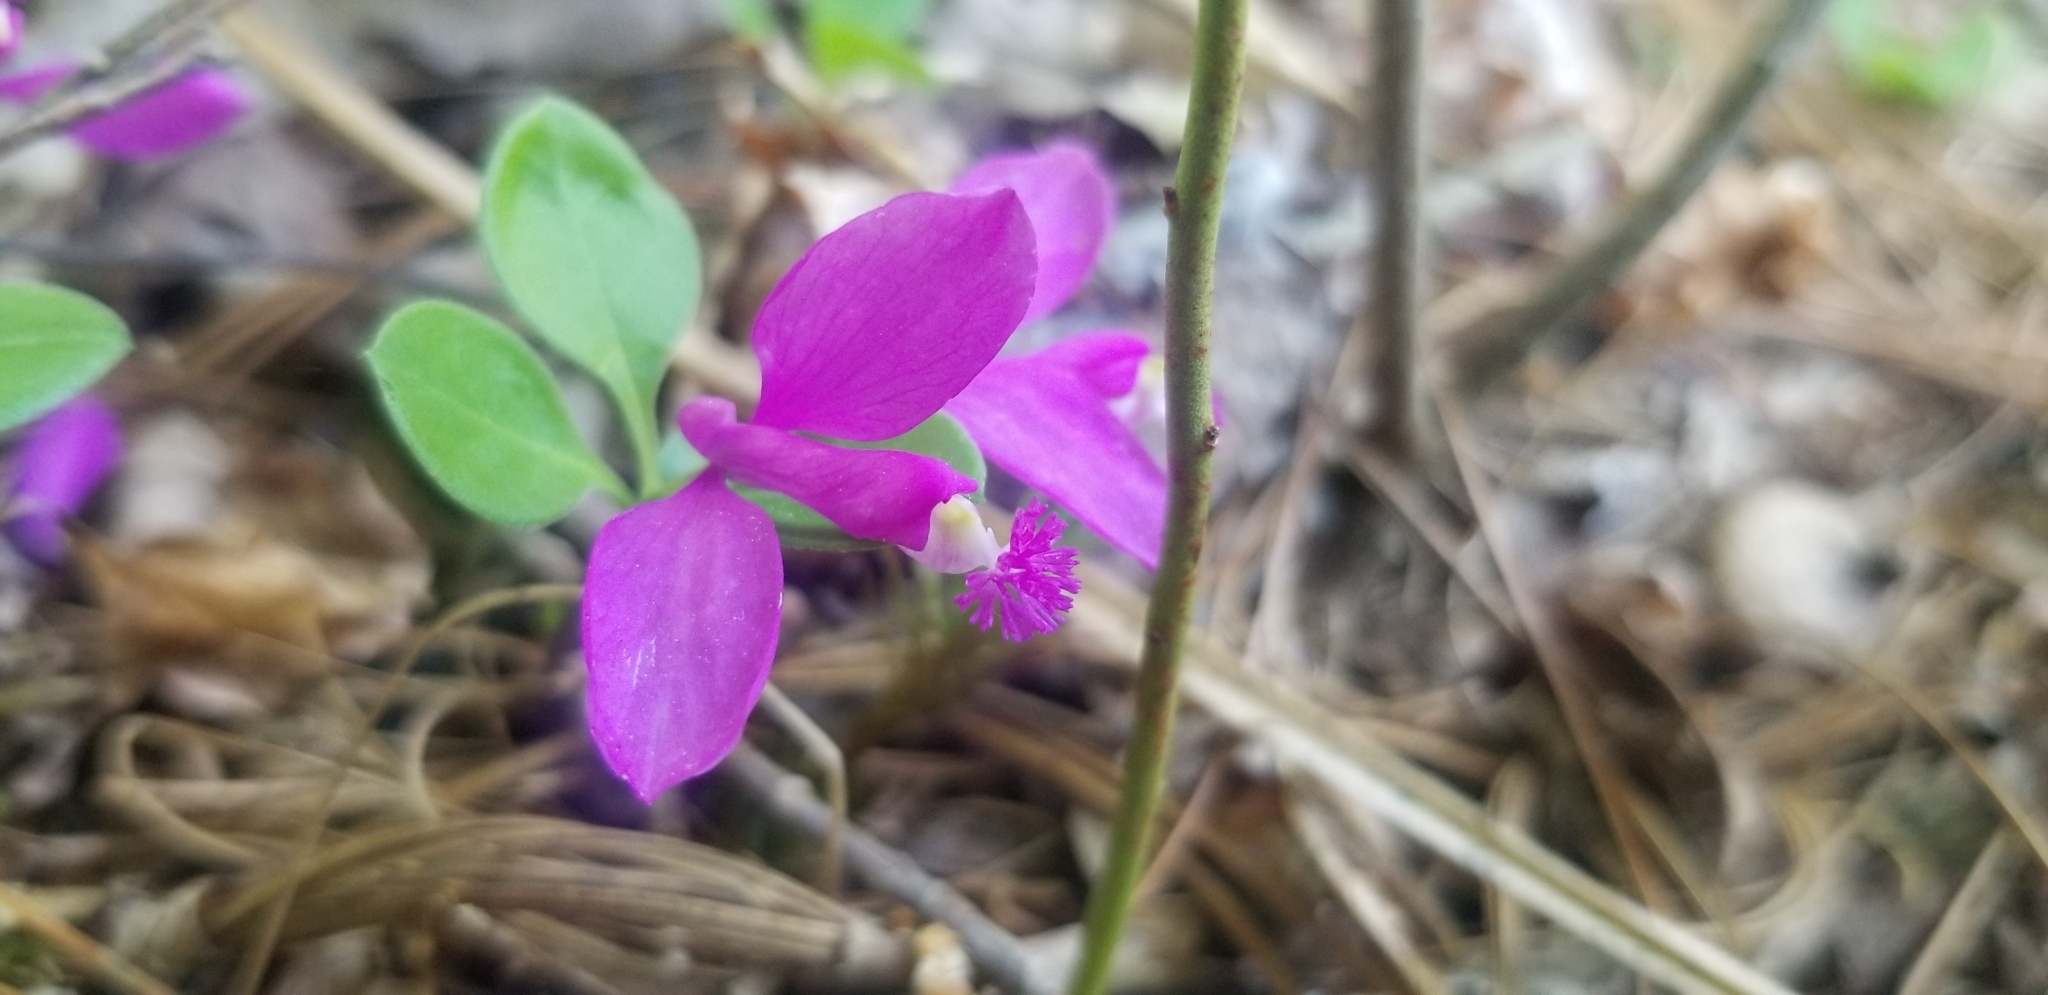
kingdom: Plantae
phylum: Tracheophyta
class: Magnoliopsida
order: Fabales
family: Polygalaceae
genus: Polygaloides
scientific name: Polygaloides paucifolia
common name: Bird-on-the-wing
